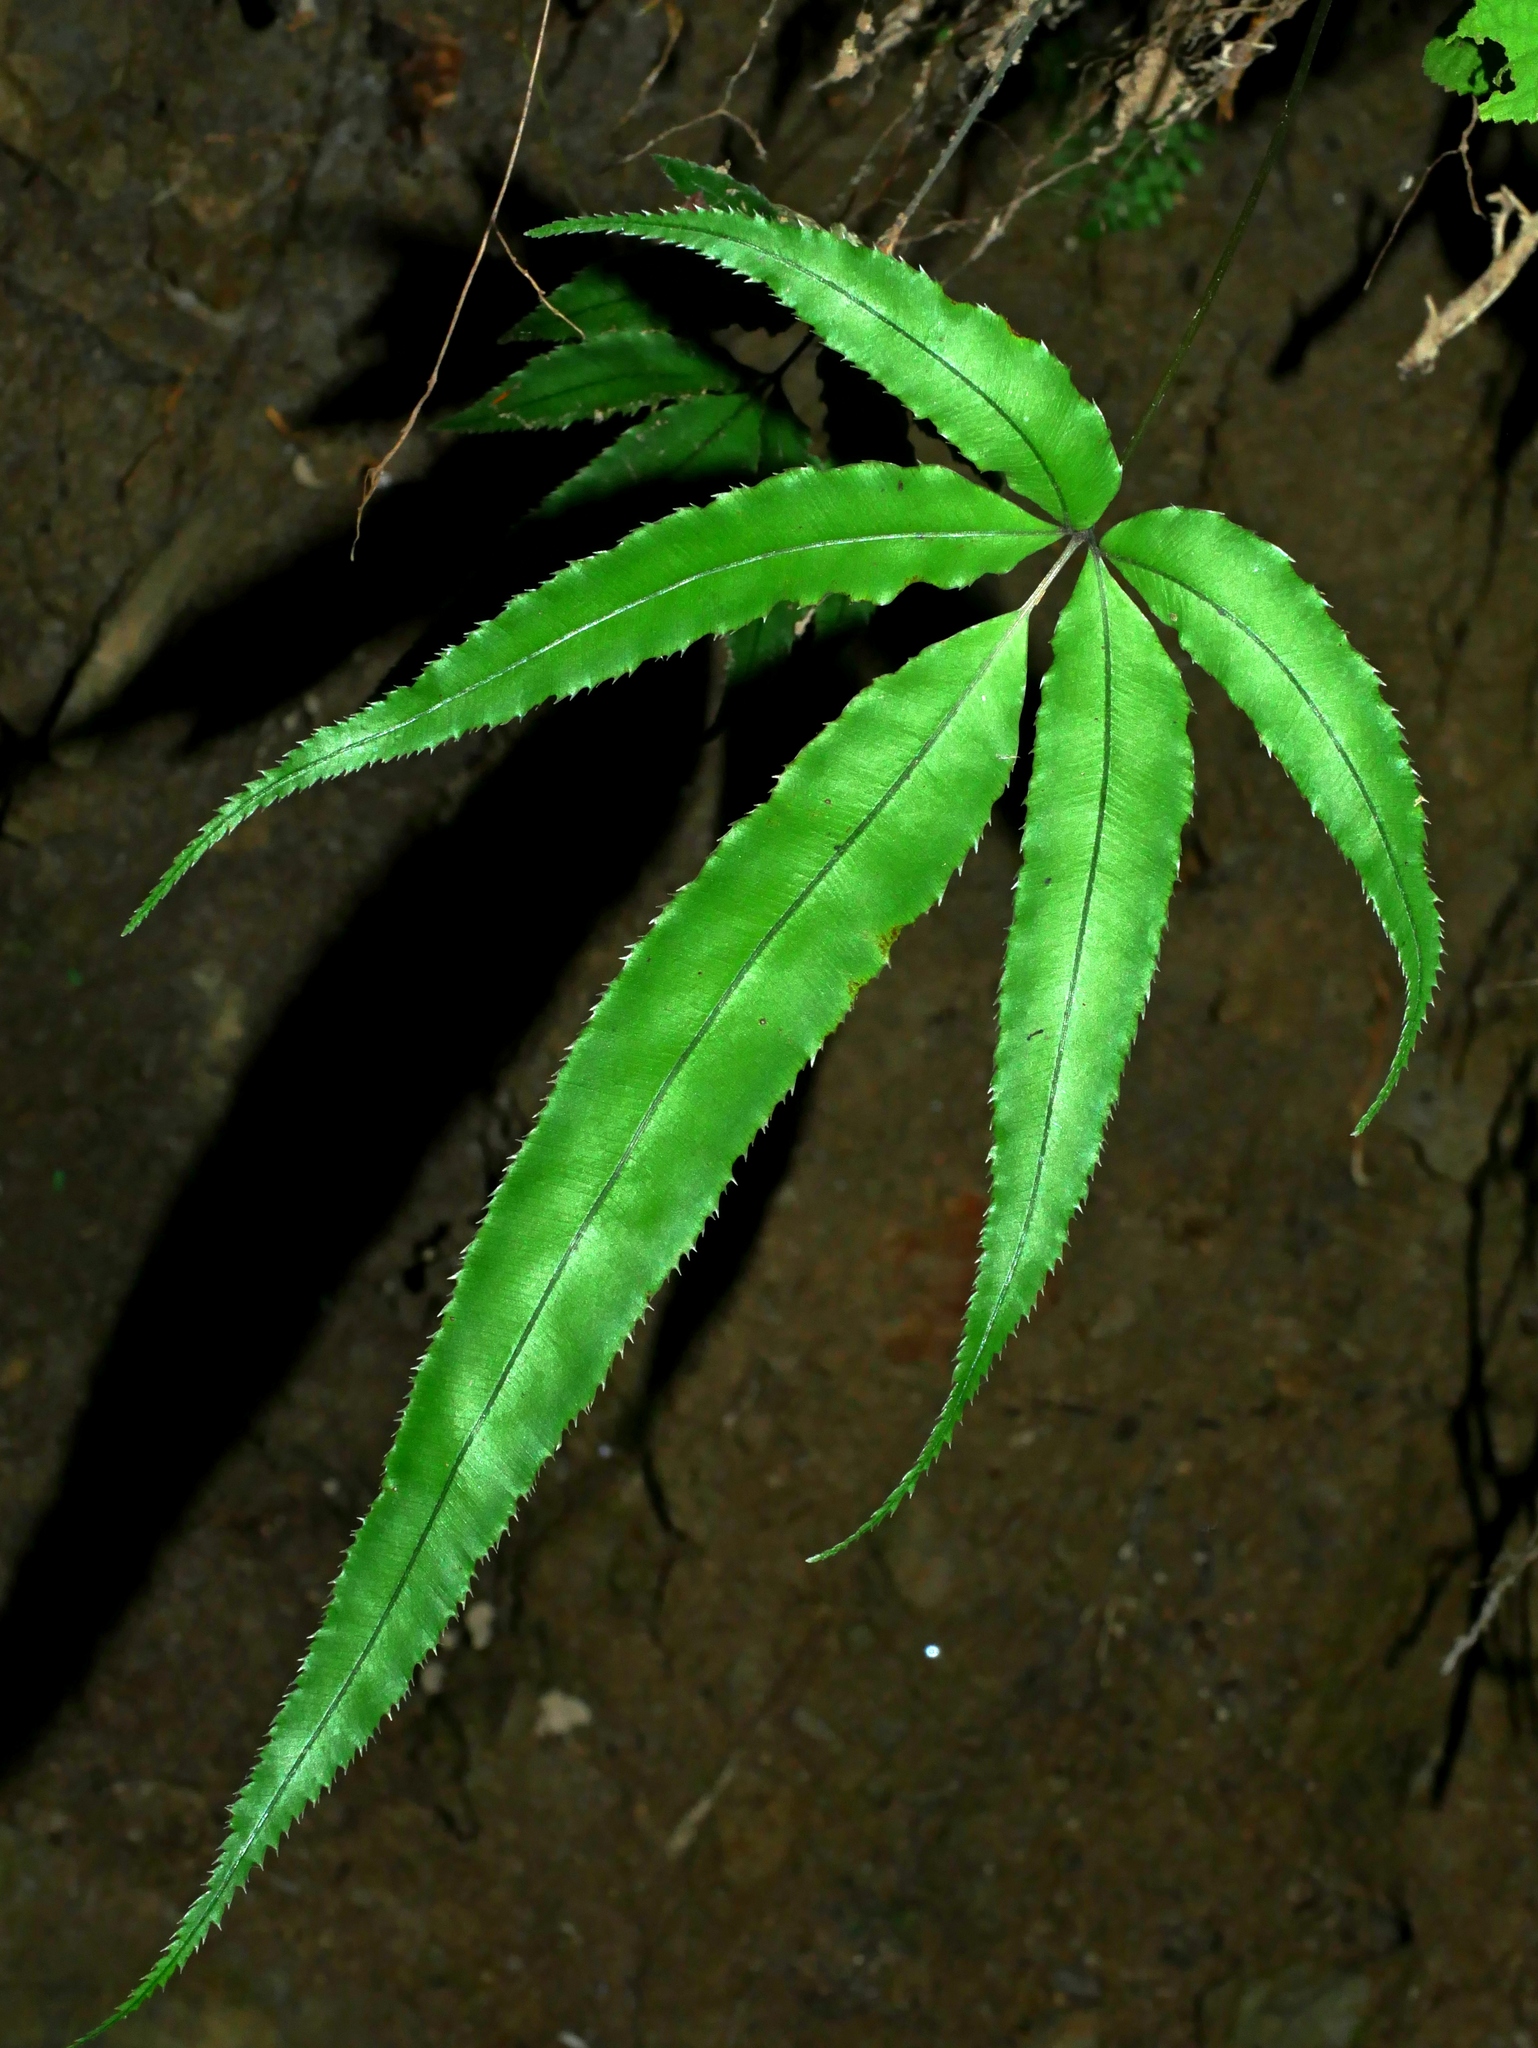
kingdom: Plantae
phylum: Tracheophyta
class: Polypodiopsida
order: Polypodiales
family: Pteridaceae
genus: Pteris
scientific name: Pteris cretica
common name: Ribbon fern
